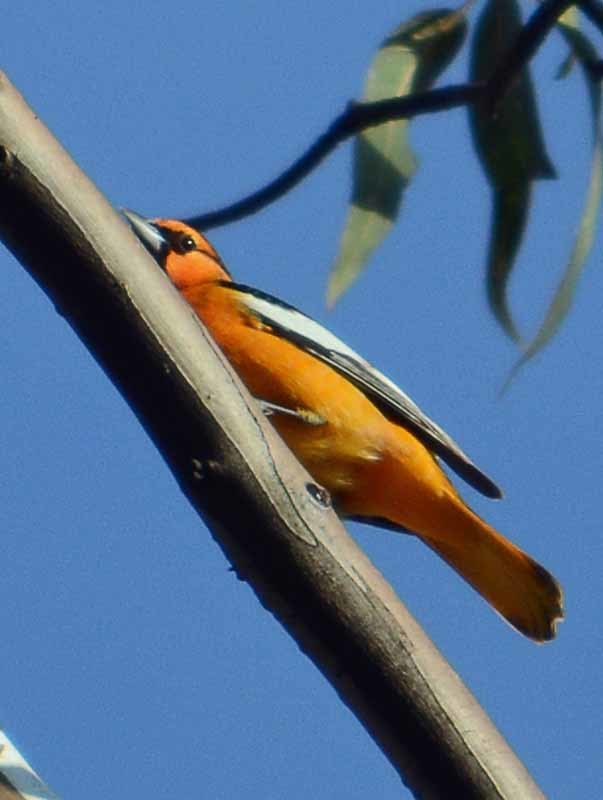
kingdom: Animalia
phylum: Chordata
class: Aves
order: Passeriformes
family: Icteridae
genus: Icterus
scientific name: Icterus bullockii
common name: Bullock's oriole
